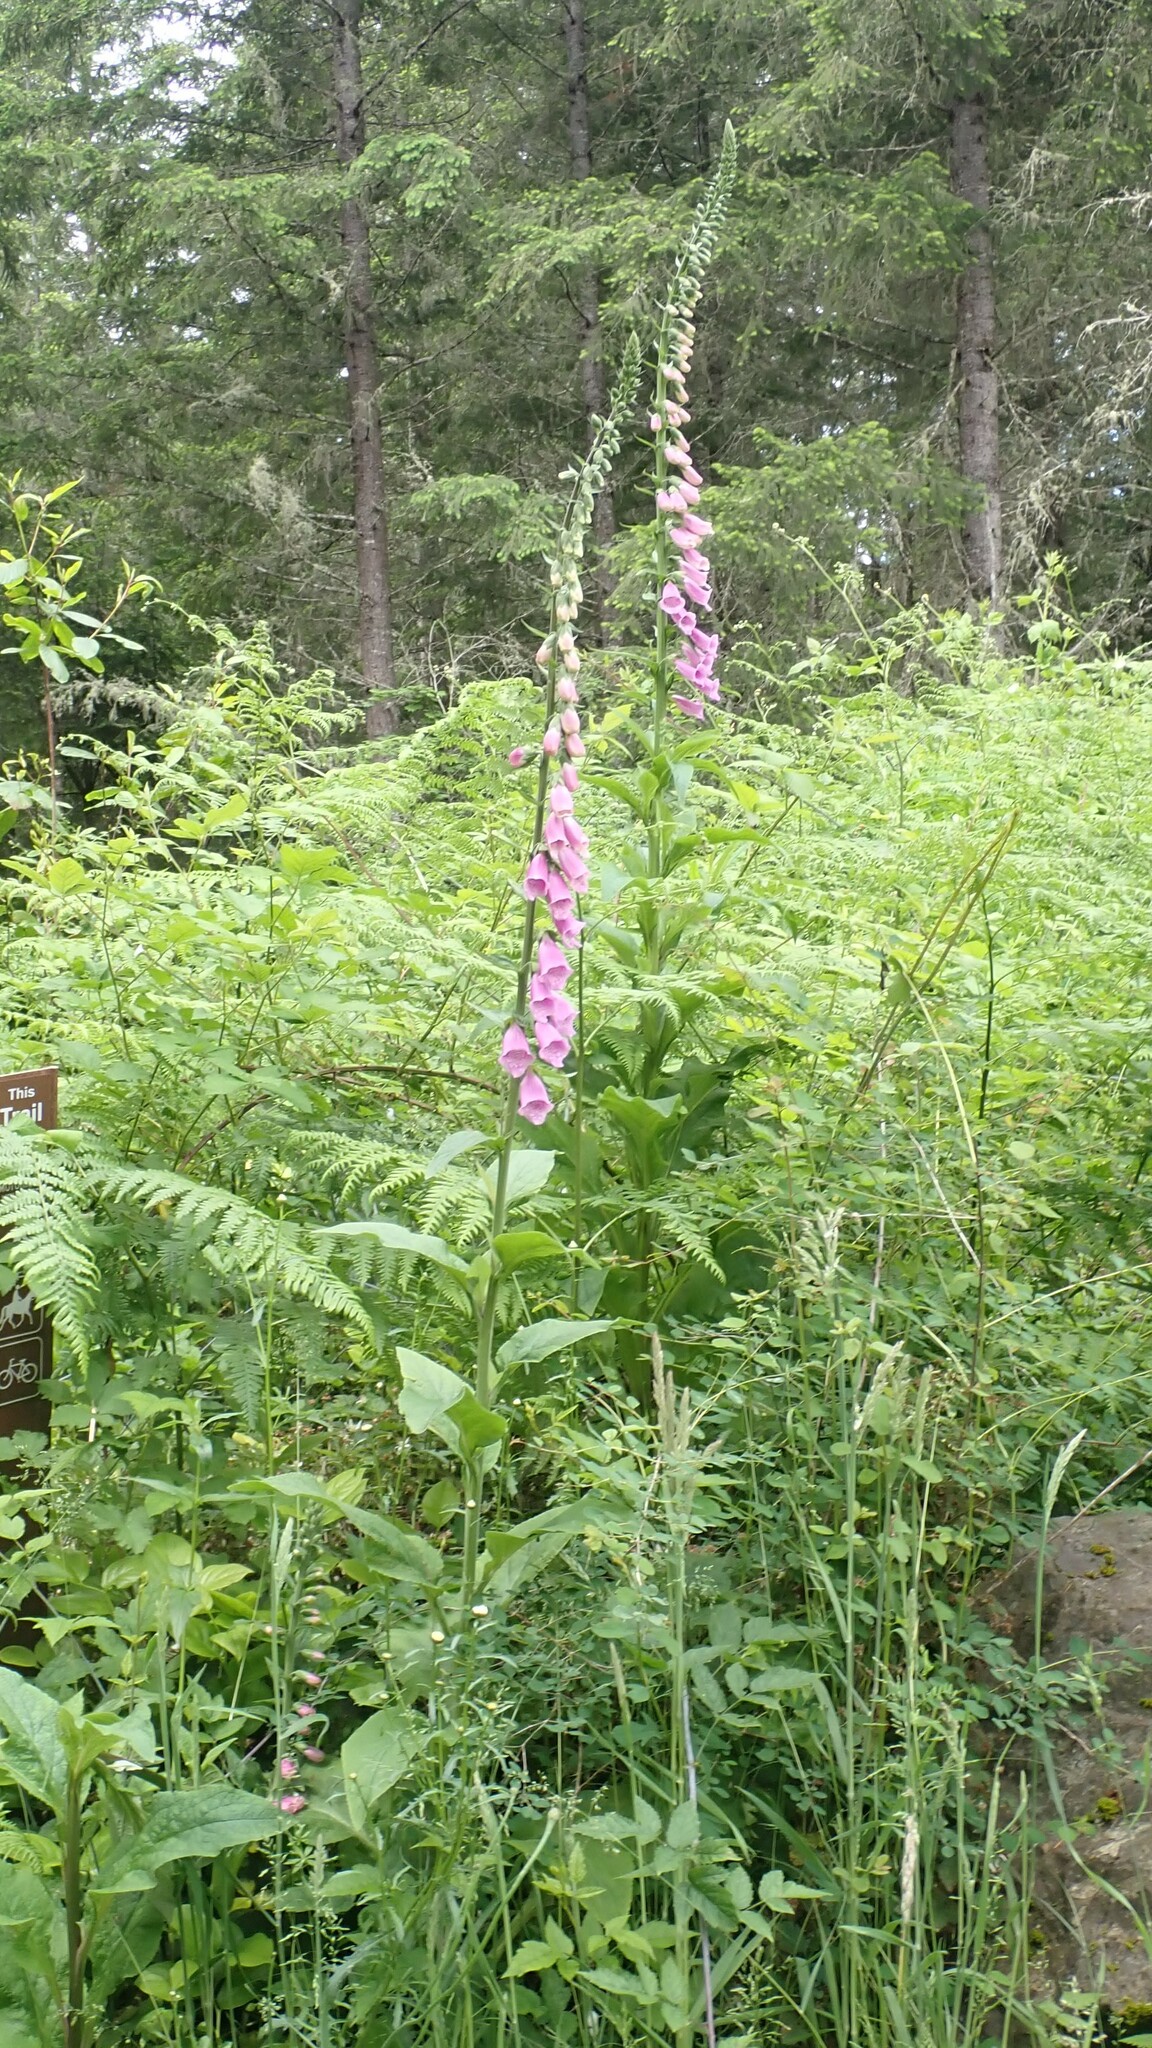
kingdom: Plantae
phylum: Tracheophyta
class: Magnoliopsida
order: Lamiales
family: Plantaginaceae
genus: Digitalis
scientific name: Digitalis purpurea
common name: Foxglove
